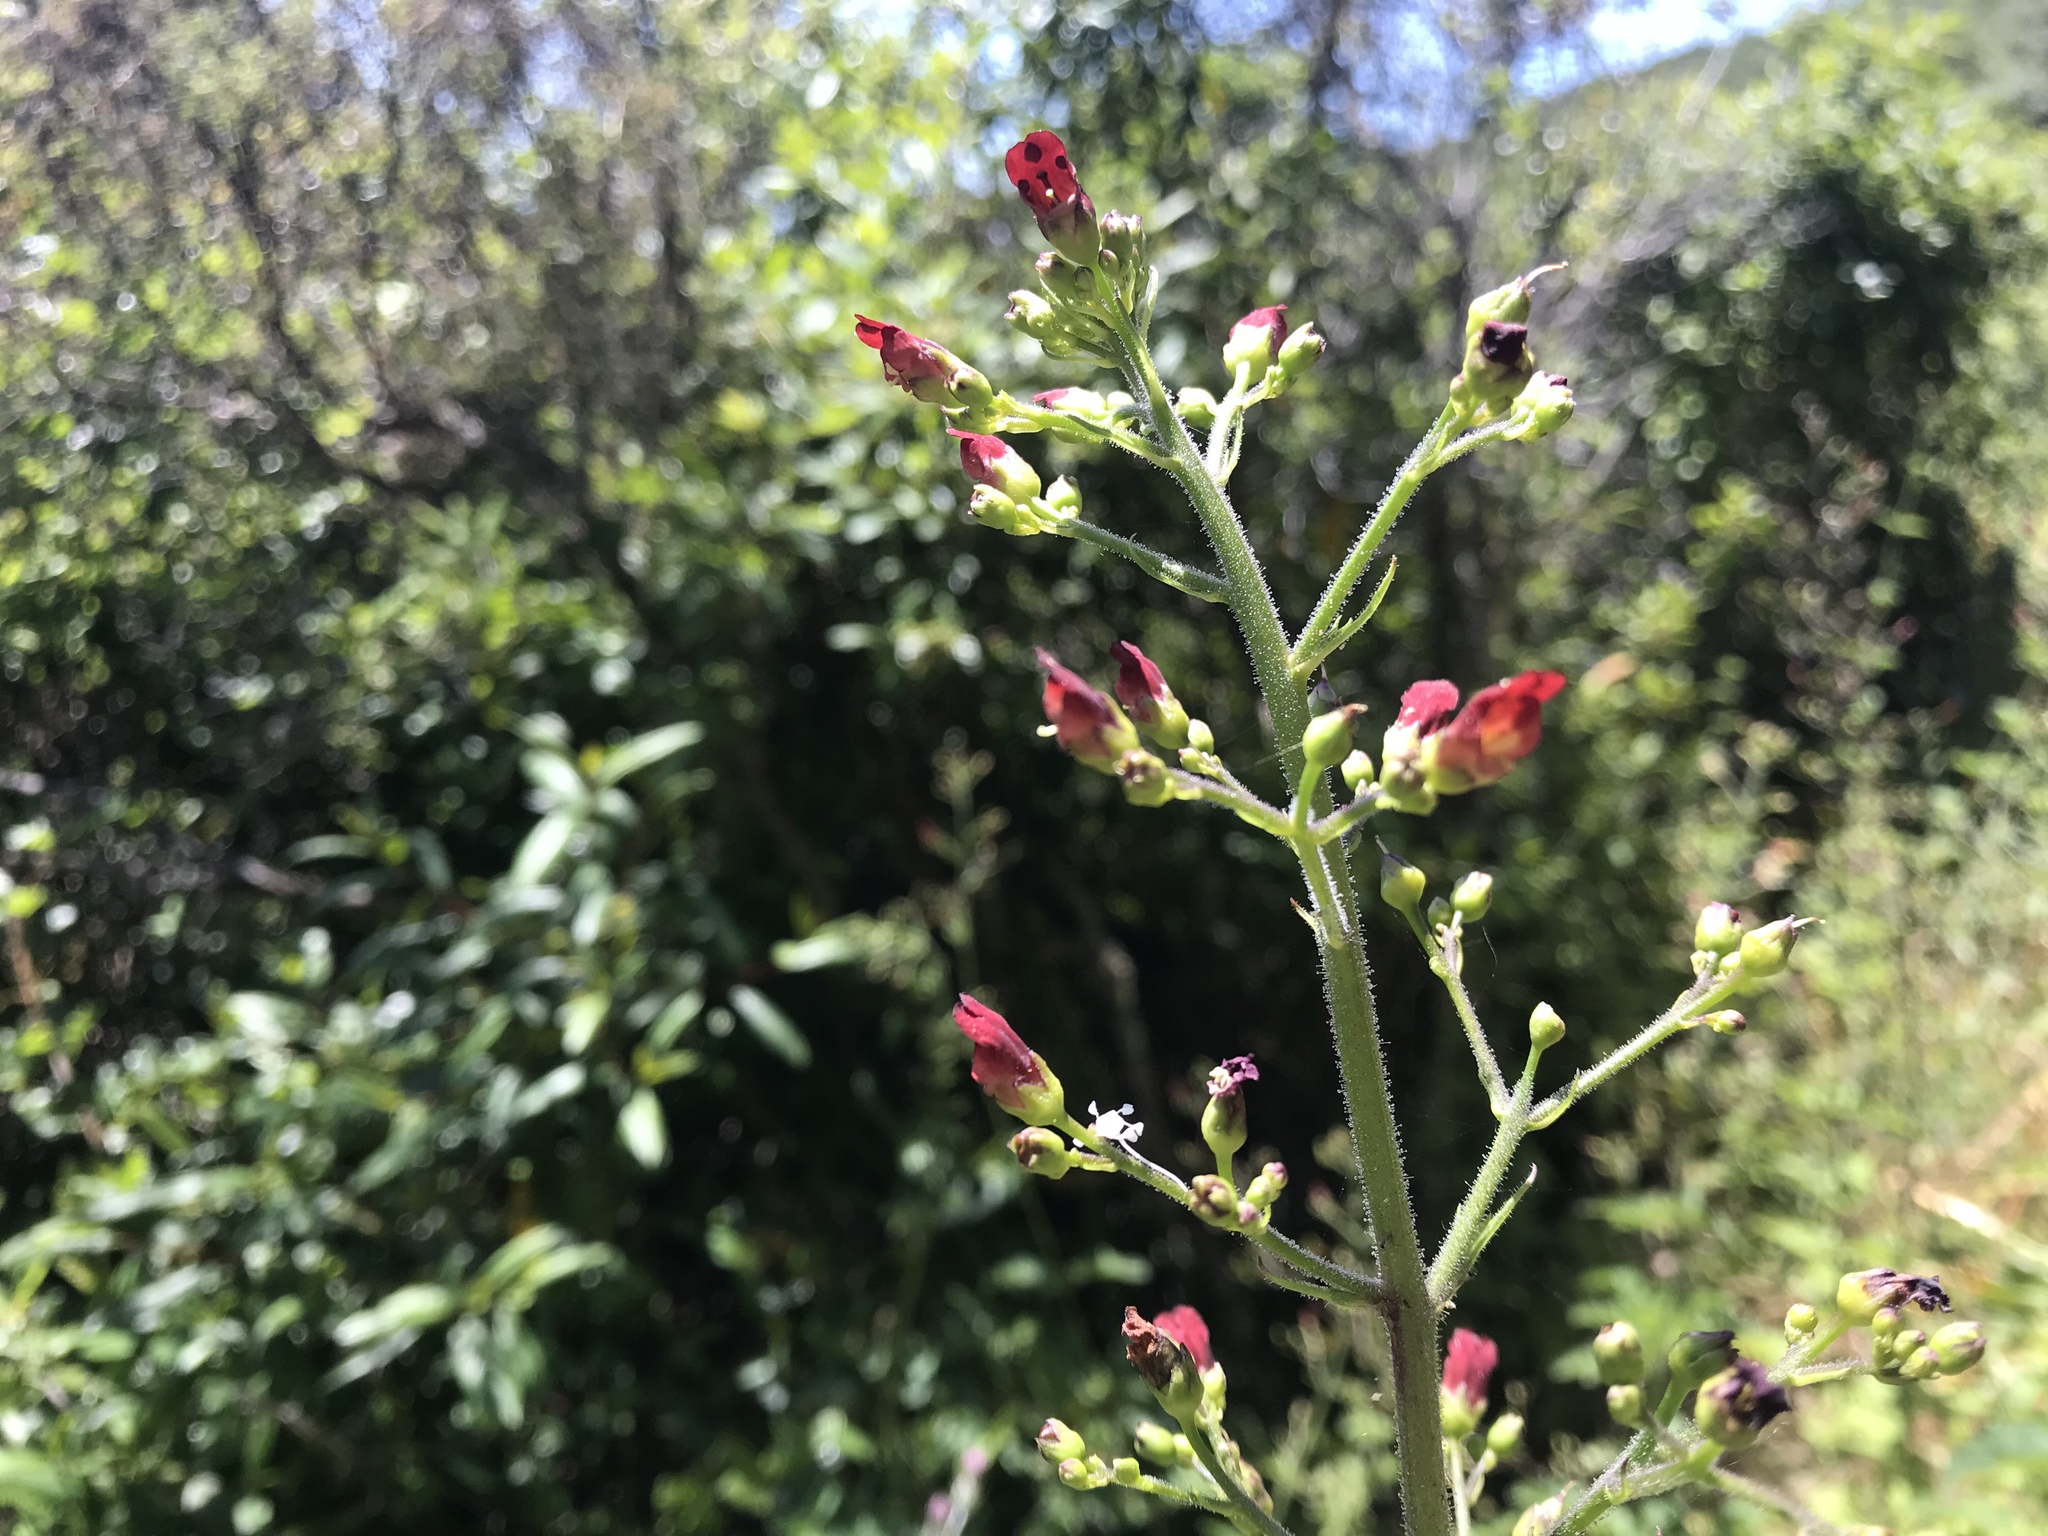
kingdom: Plantae
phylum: Tracheophyta
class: Magnoliopsida
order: Lamiales
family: Scrophulariaceae
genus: Scrophularia
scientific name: Scrophularia californica
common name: California figwort
